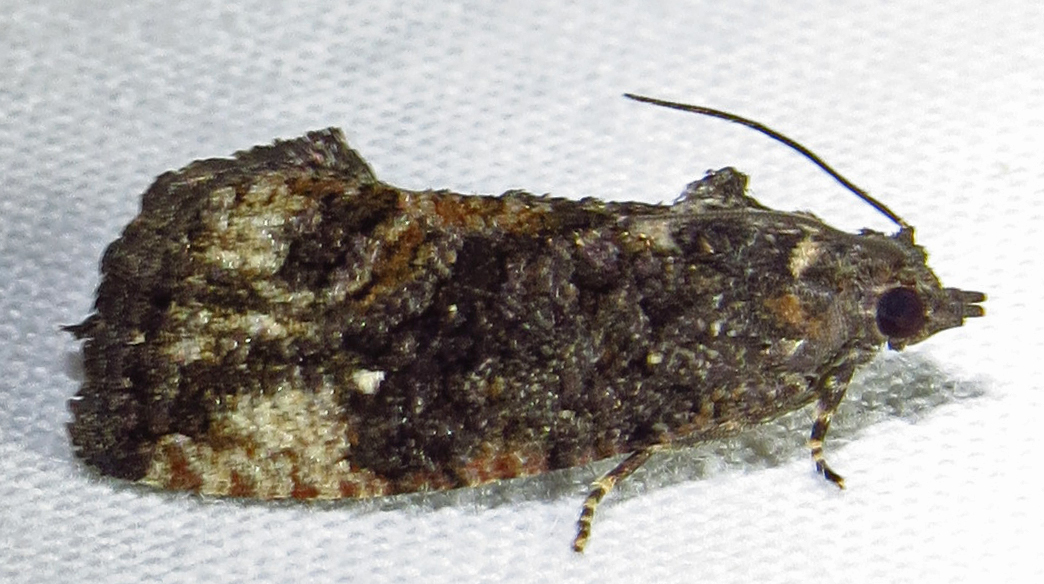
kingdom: Animalia
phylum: Arthropoda
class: Insecta
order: Lepidoptera
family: Tortricidae
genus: Gymnandrosoma
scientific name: Gymnandrosoma punctidiscanum
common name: Dotted ecdytolopha moth
